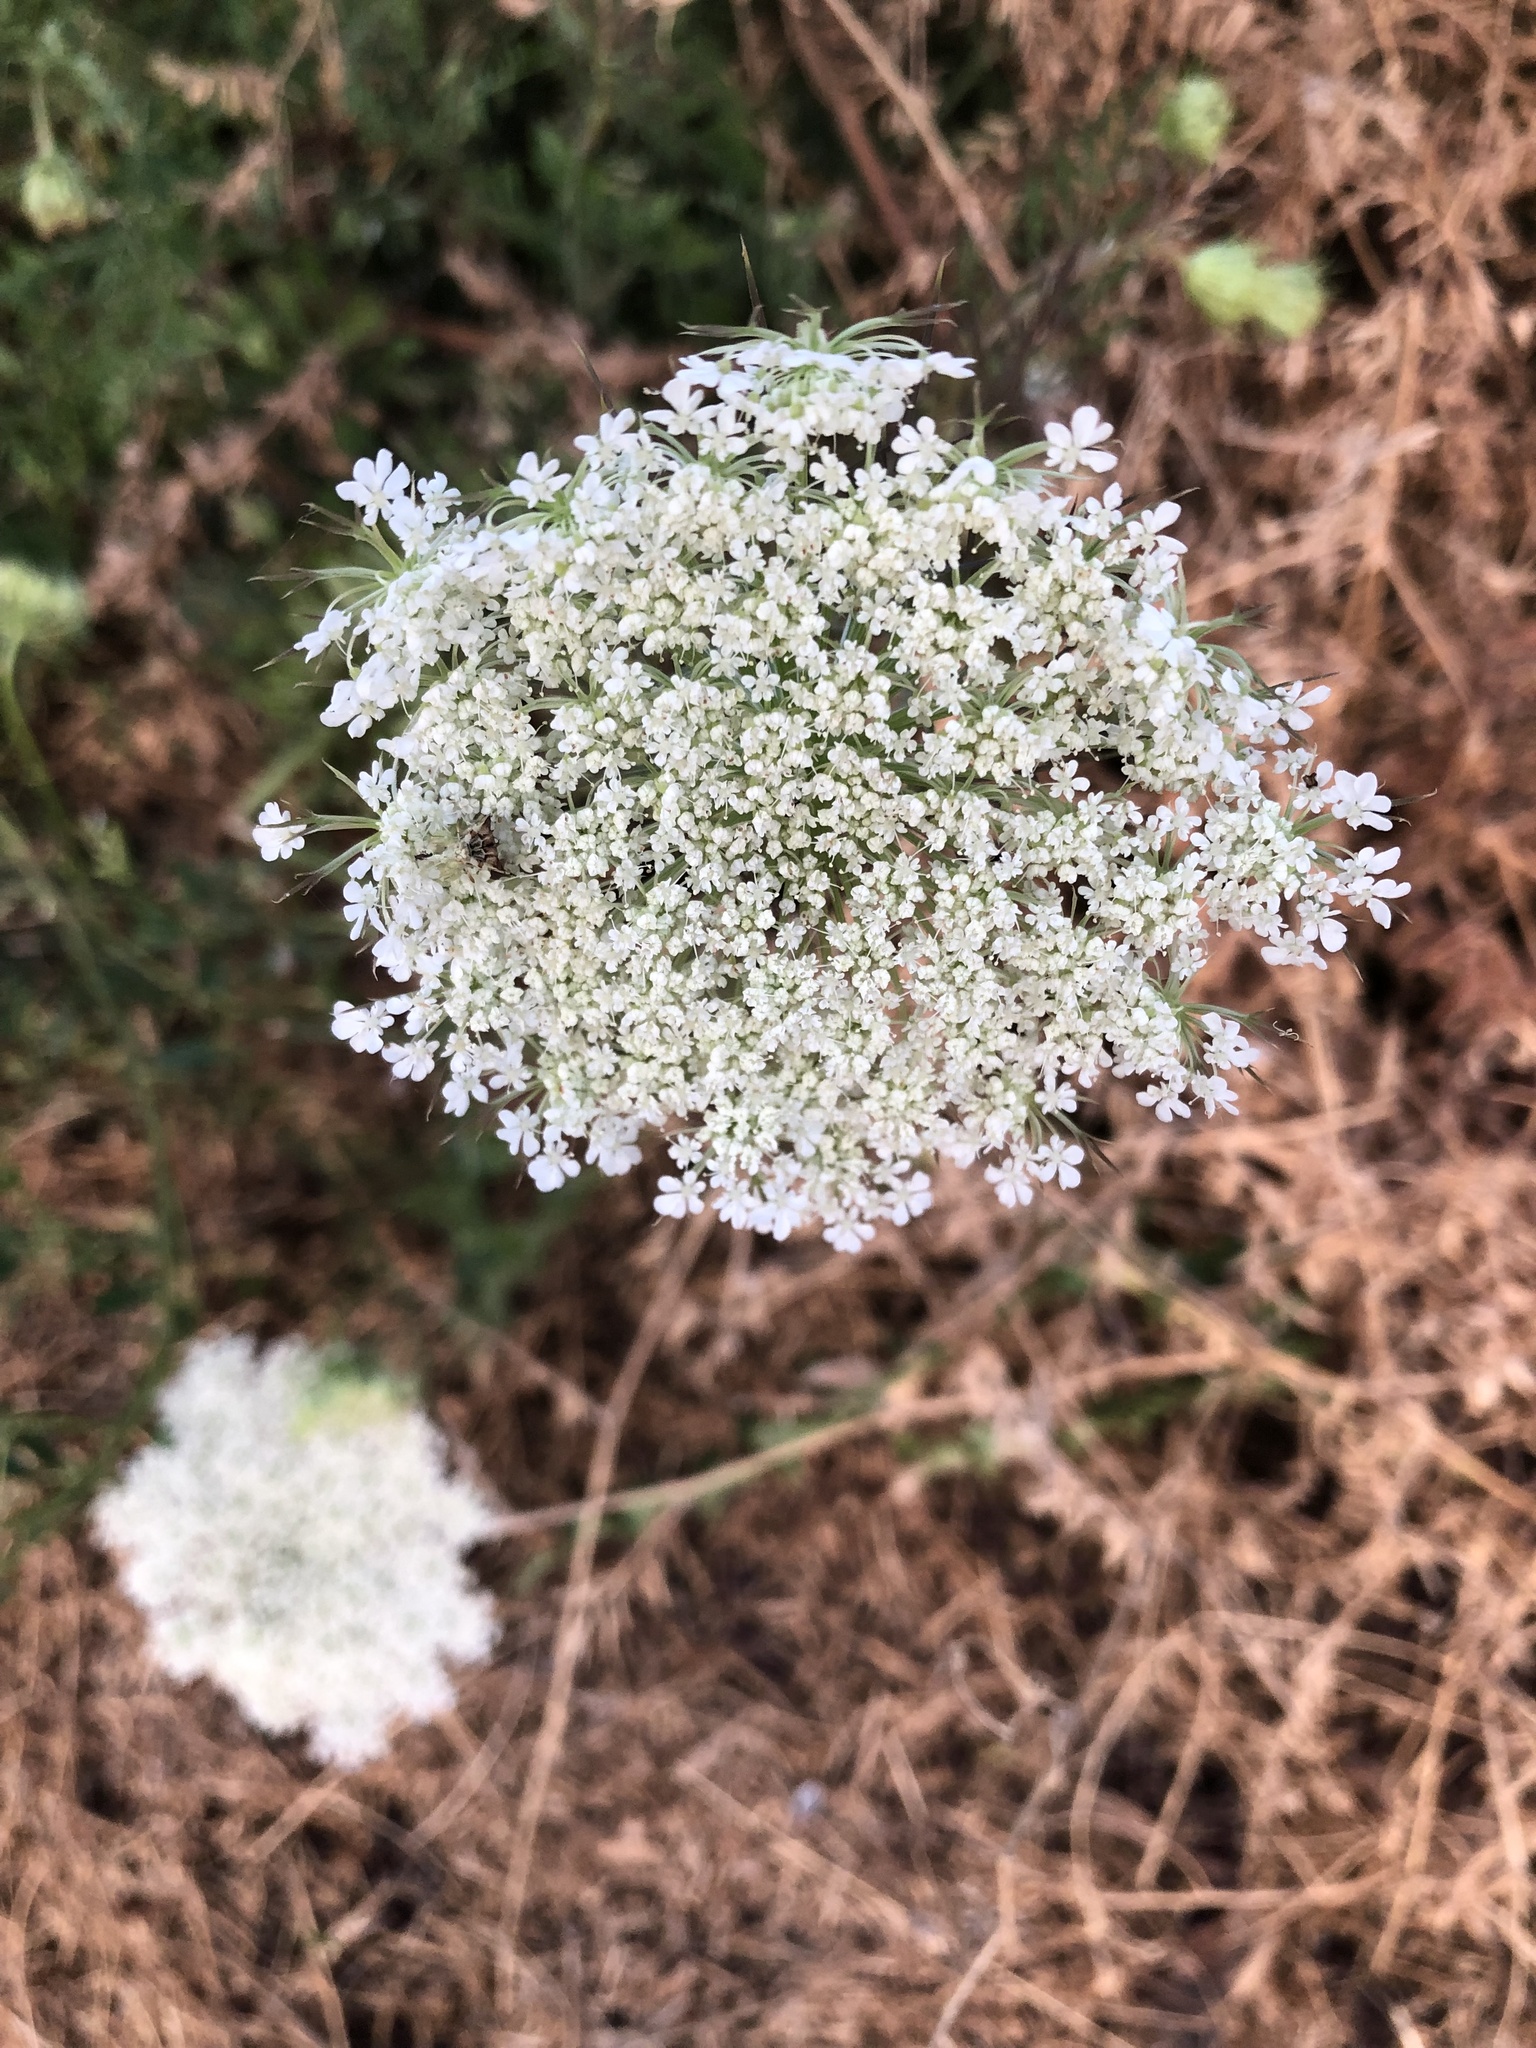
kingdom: Plantae
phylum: Tracheophyta
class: Magnoliopsida
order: Apiales
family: Apiaceae
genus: Daucus
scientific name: Daucus carota
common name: Wild carrot
